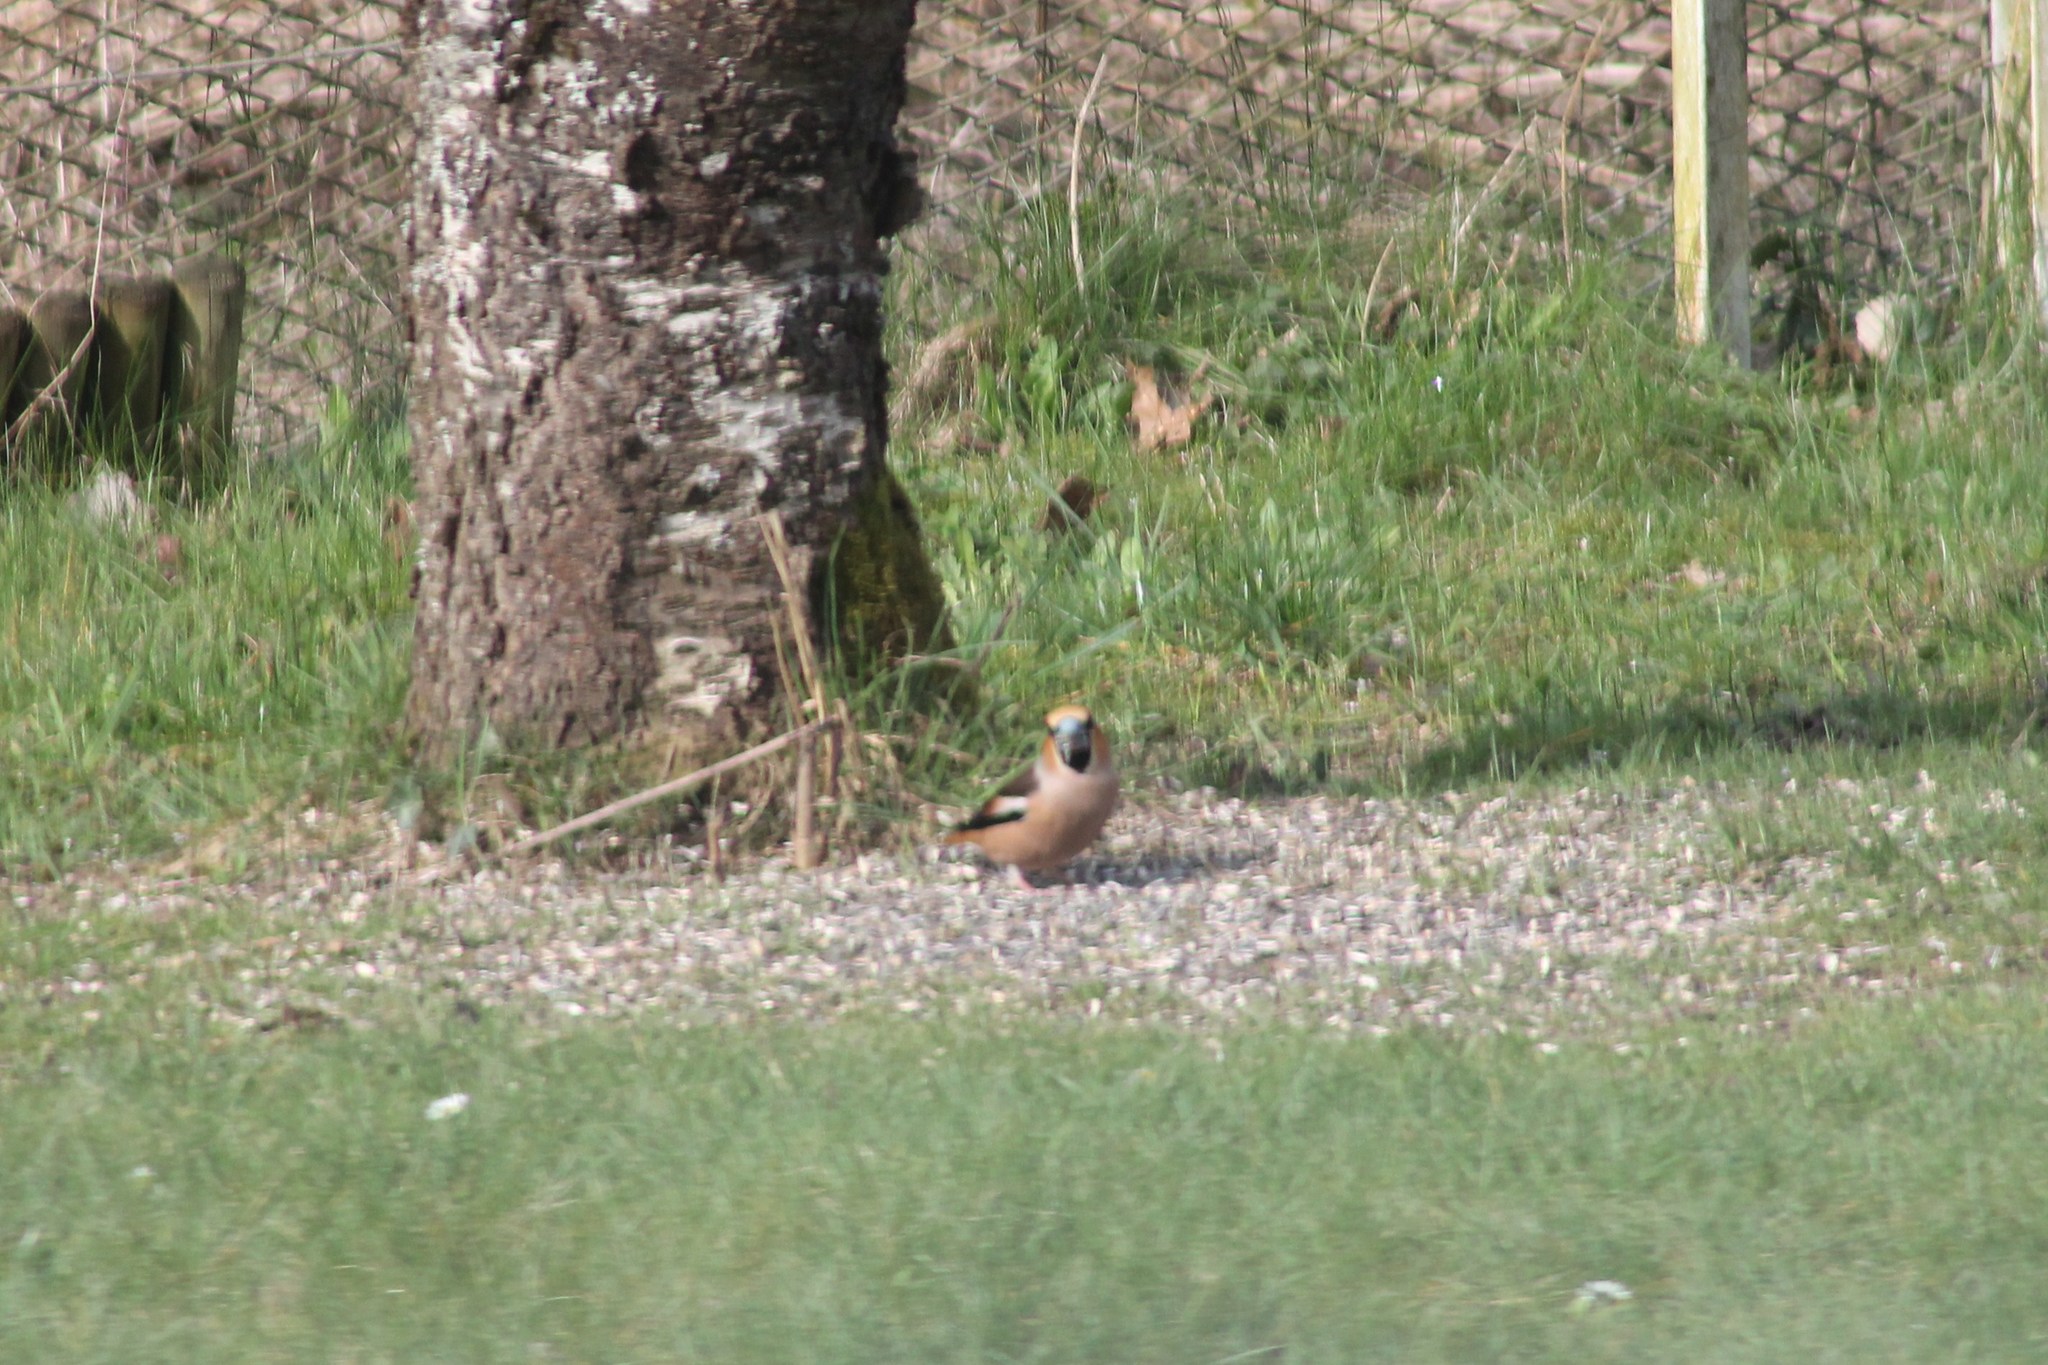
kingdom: Animalia
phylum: Chordata
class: Aves
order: Passeriformes
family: Fringillidae
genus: Coccothraustes
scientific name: Coccothraustes coccothraustes
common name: Hawfinch
